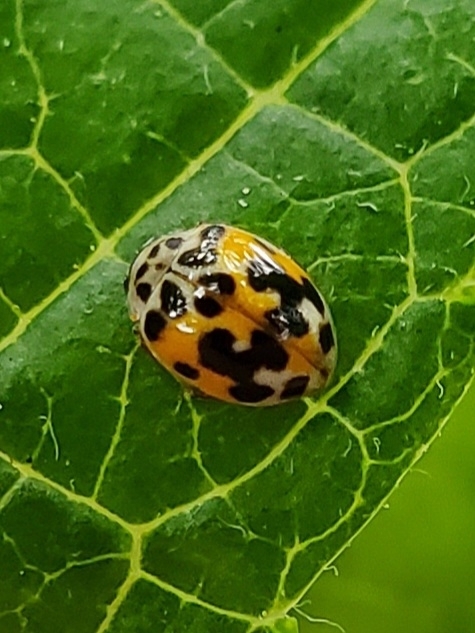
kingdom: Animalia
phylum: Arthropoda
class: Insecta
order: Coleoptera
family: Coccinellidae
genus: Psyllobora
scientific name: Psyllobora vigintimaculata
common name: Ladybird beetle
